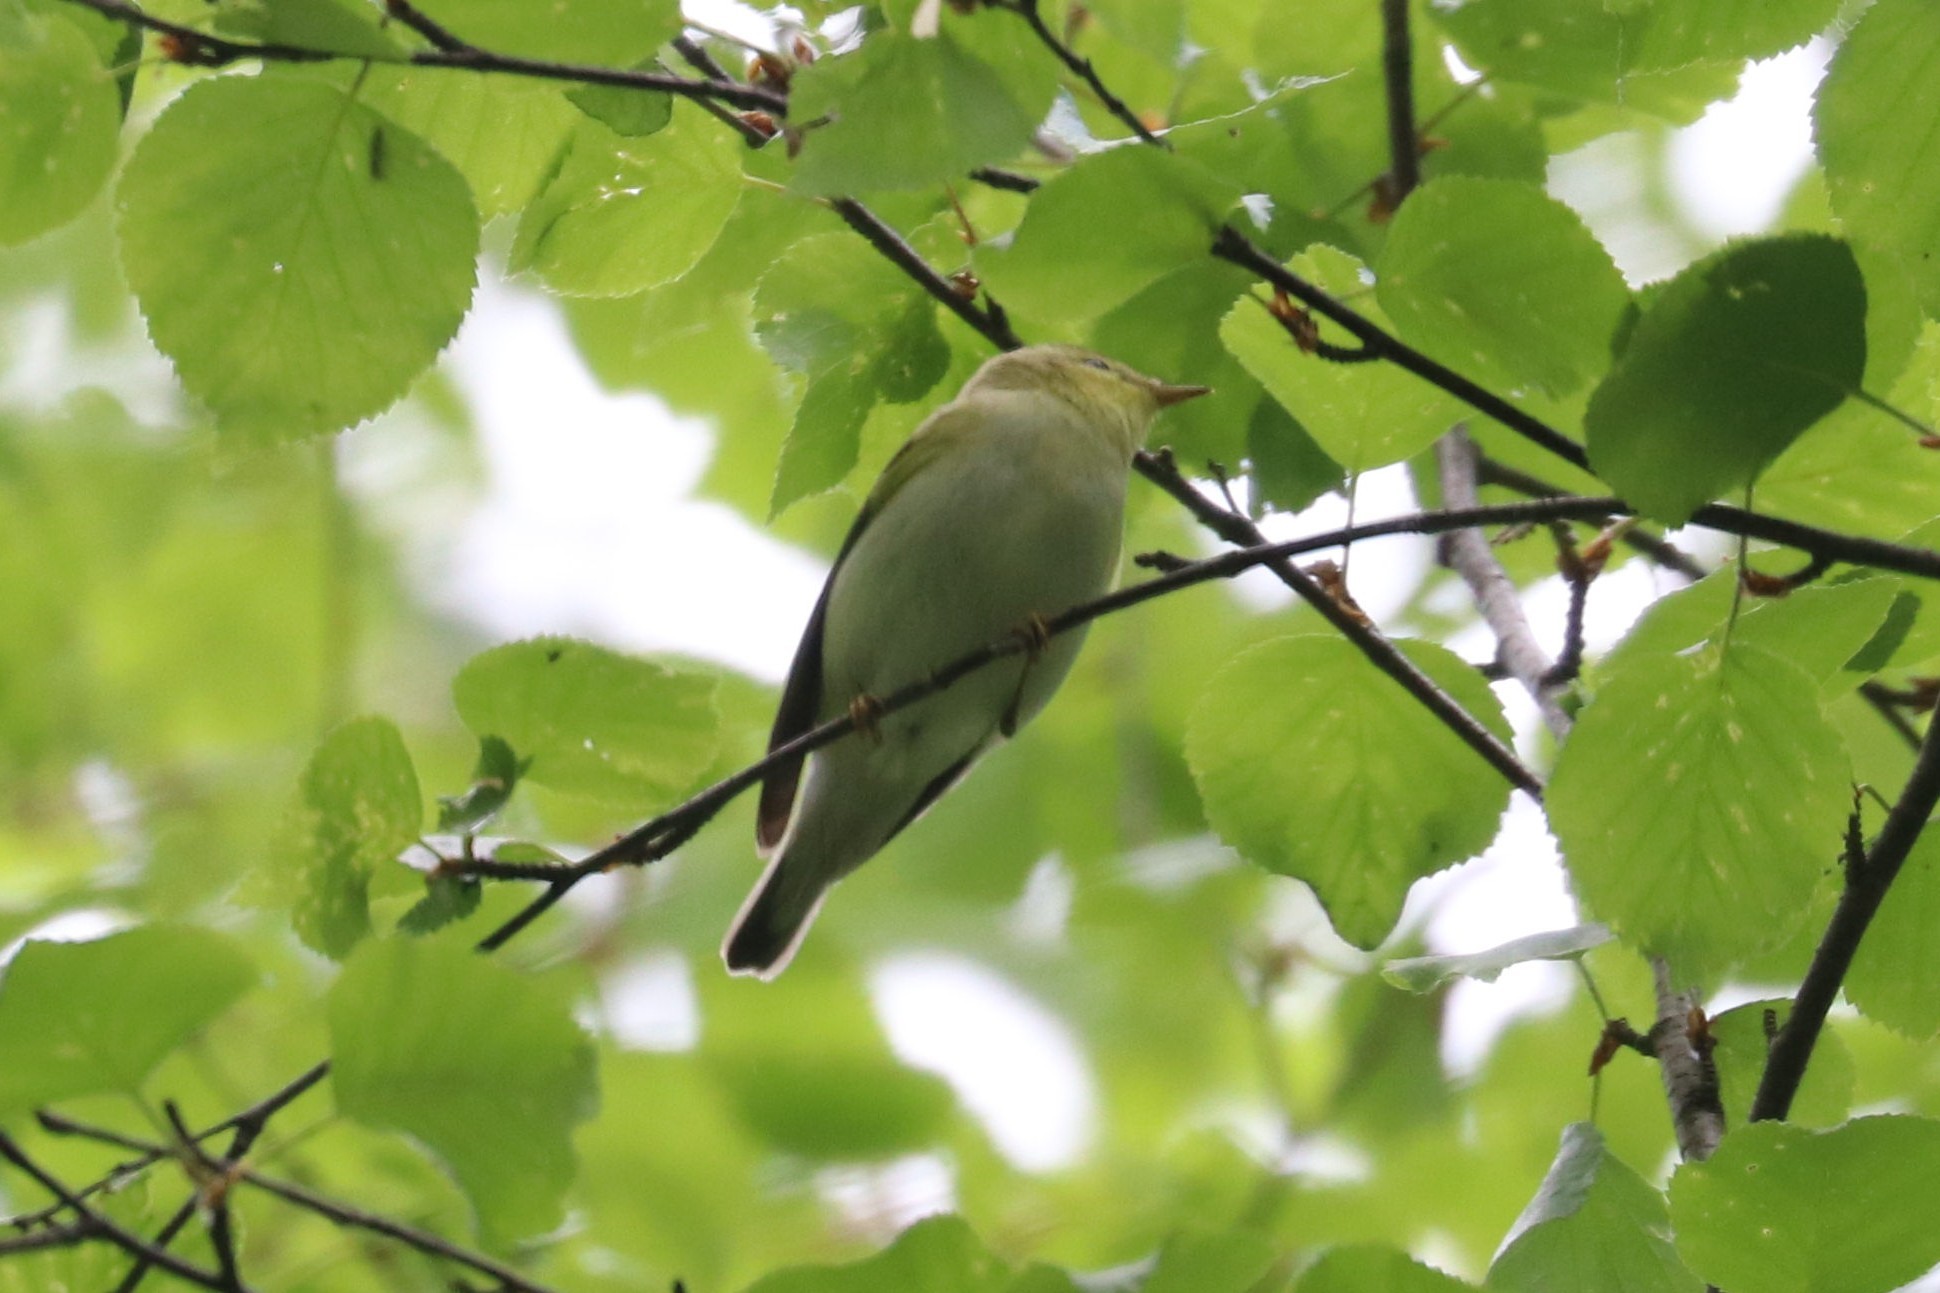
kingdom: Animalia
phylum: Chordata
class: Aves
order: Passeriformes
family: Phylloscopidae
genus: Phylloscopus
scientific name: Phylloscopus sibillatrix
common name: Wood warbler
